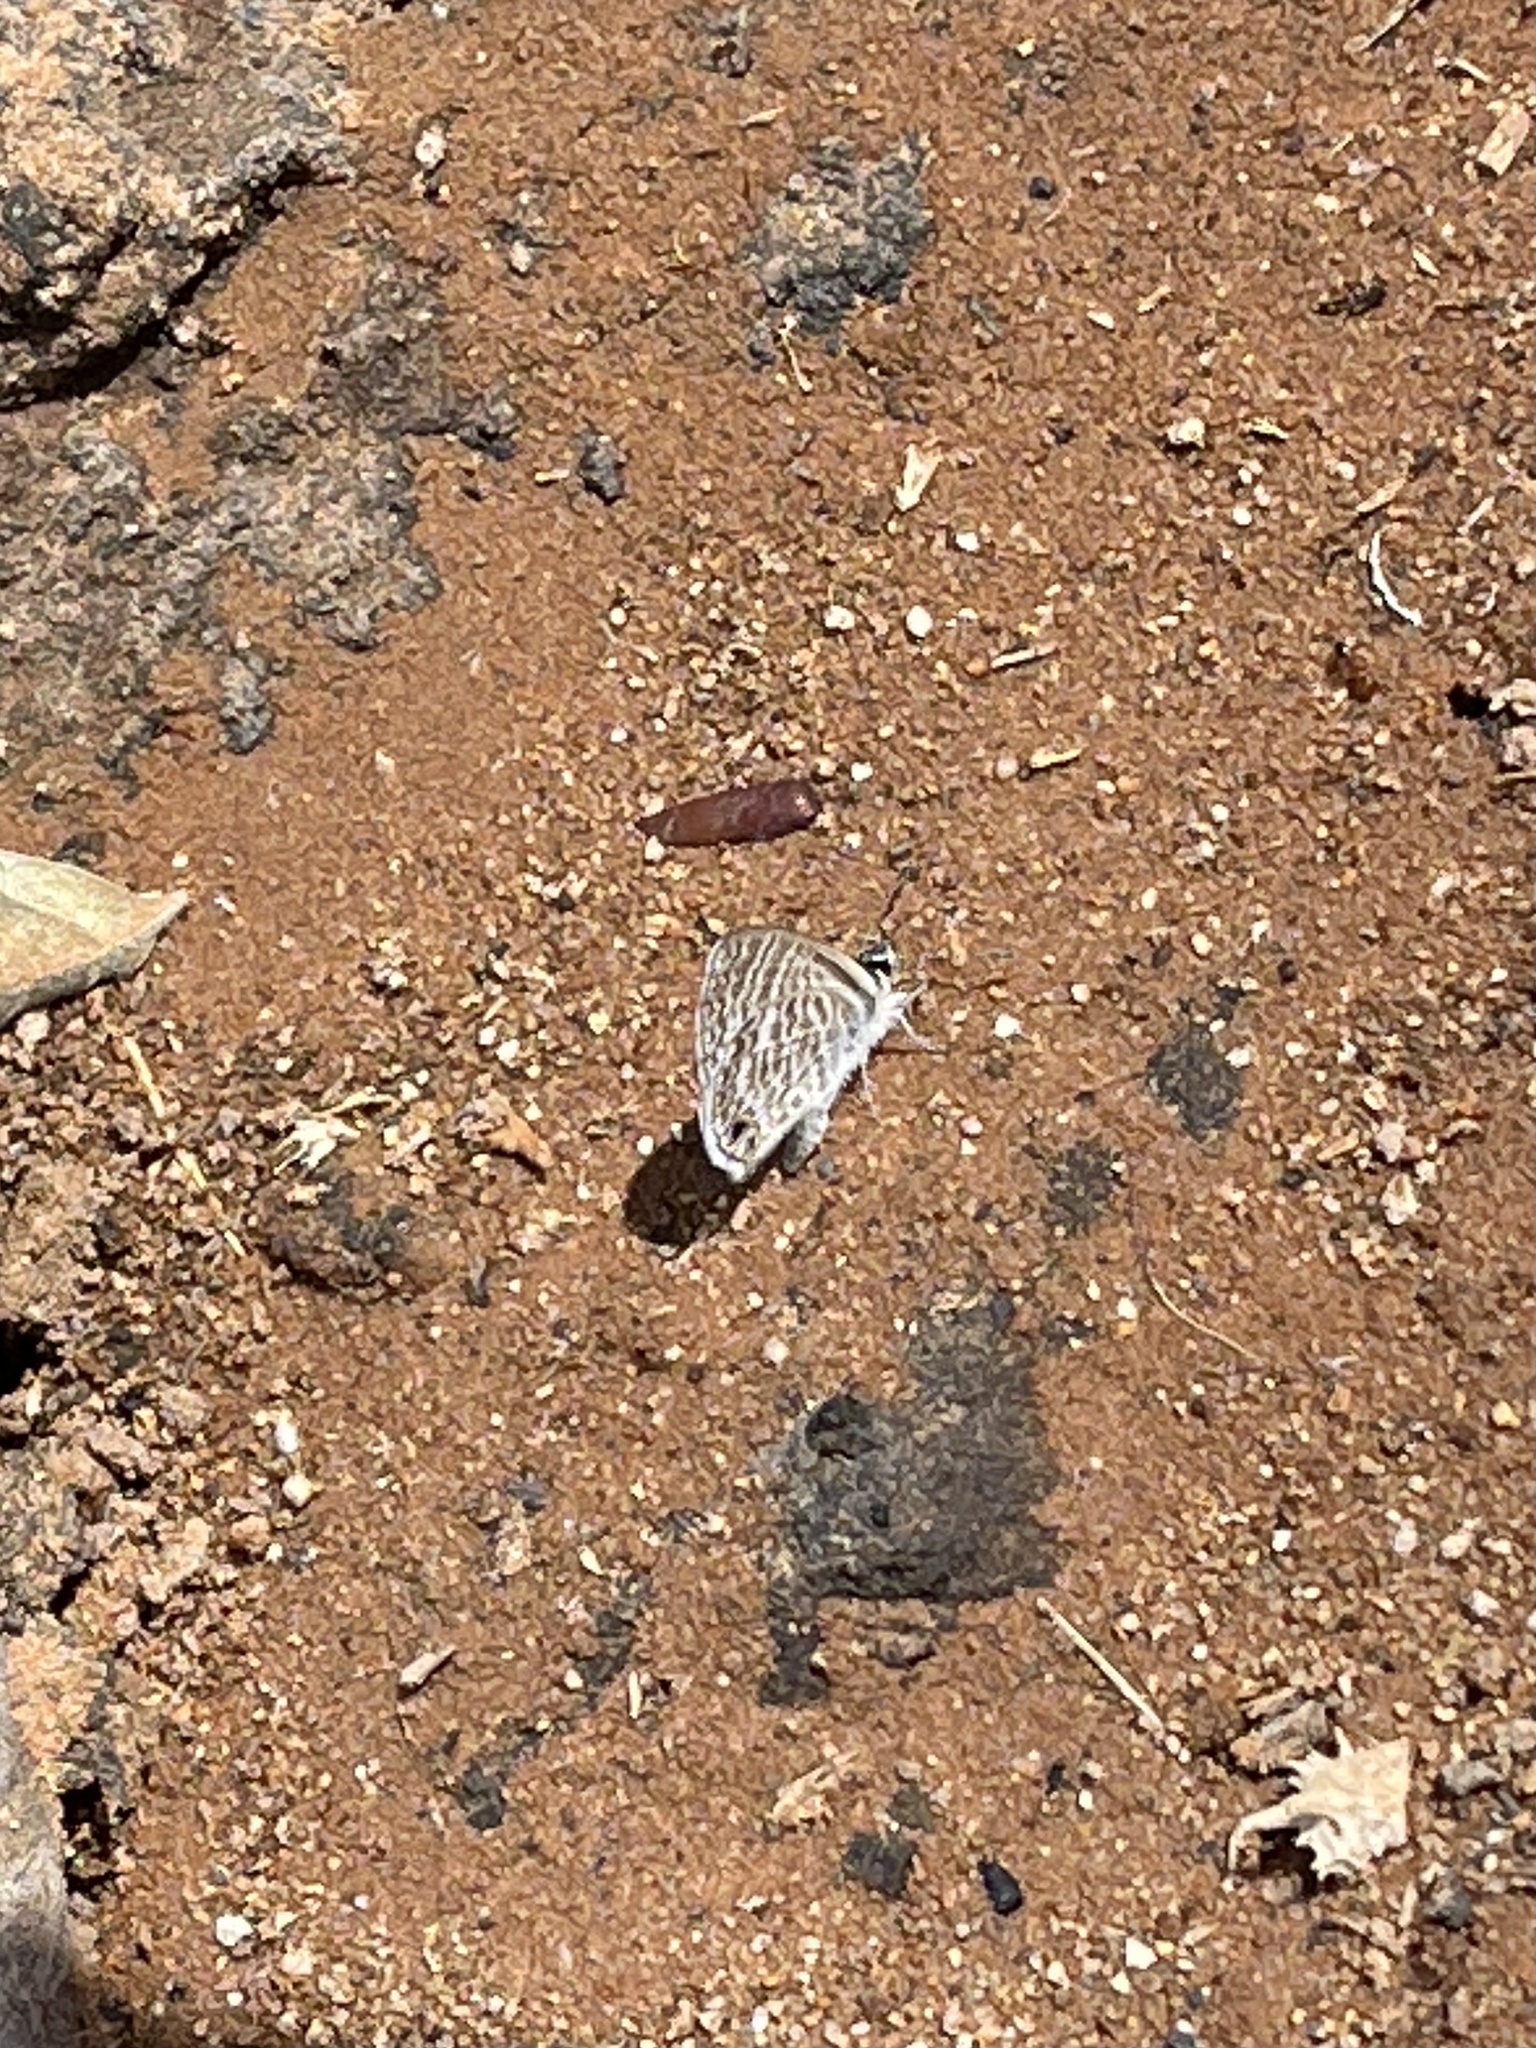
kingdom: Animalia
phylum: Arthropoda
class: Insecta
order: Lepidoptera
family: Lycaenidae
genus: Leptotes
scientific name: Leptotes marina
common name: Marine blue
